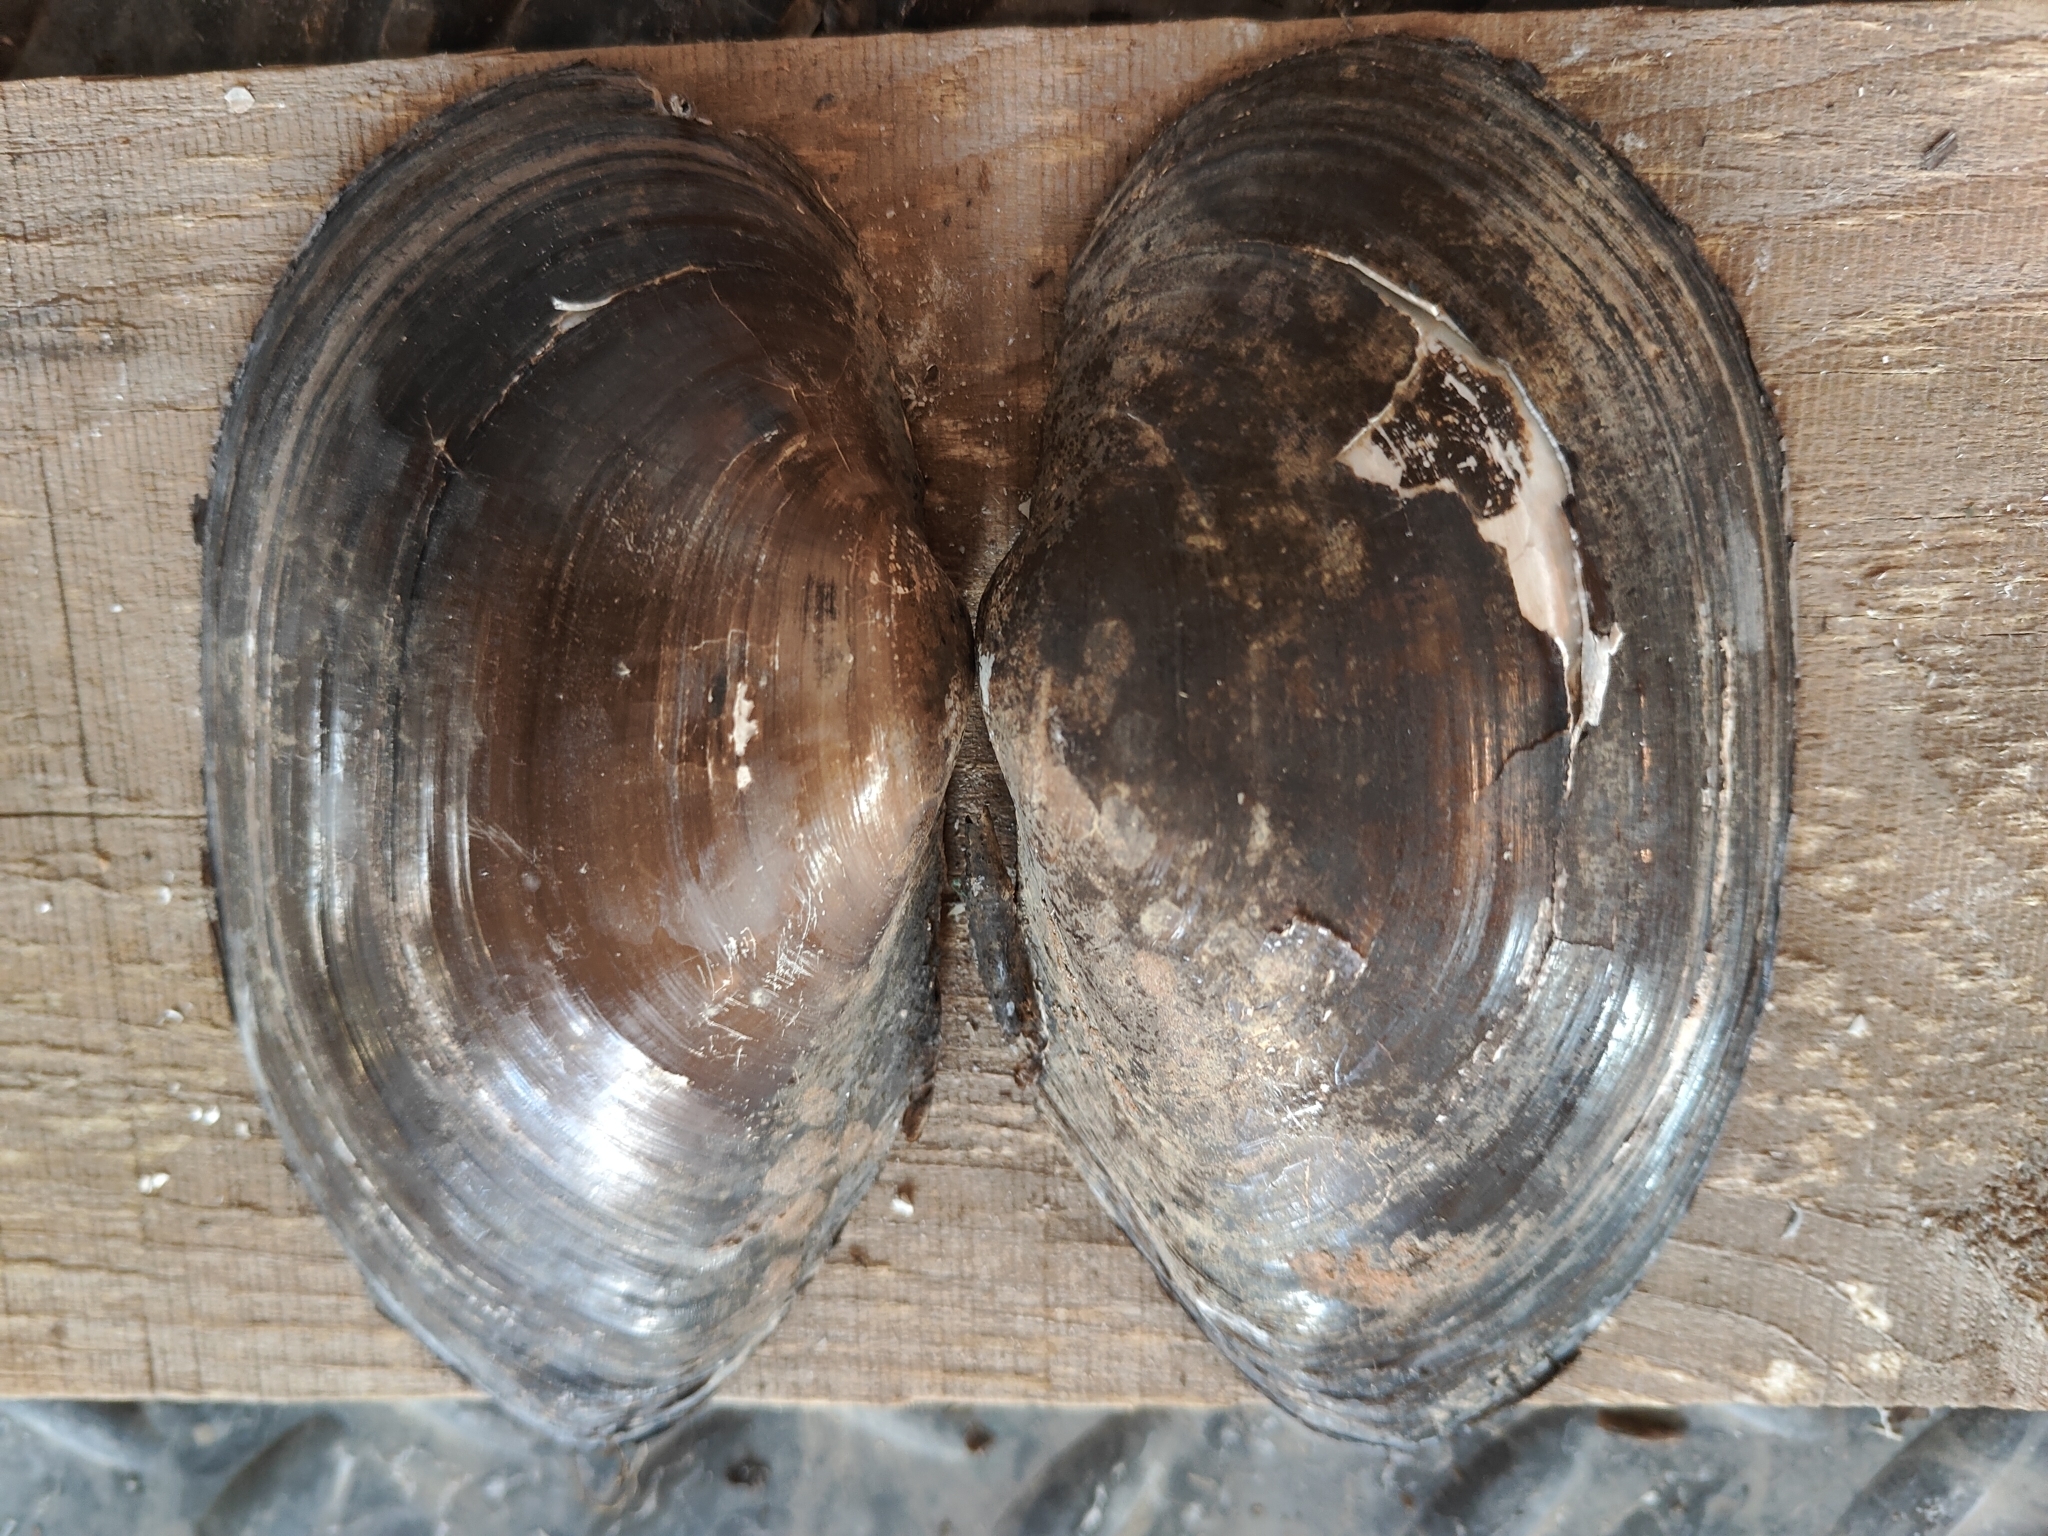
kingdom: Animalia
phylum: Mollusca
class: Bivalvia
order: Unionida
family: Unionidae
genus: Pyganodon
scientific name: Pyganodon grandis
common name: Giant floater
